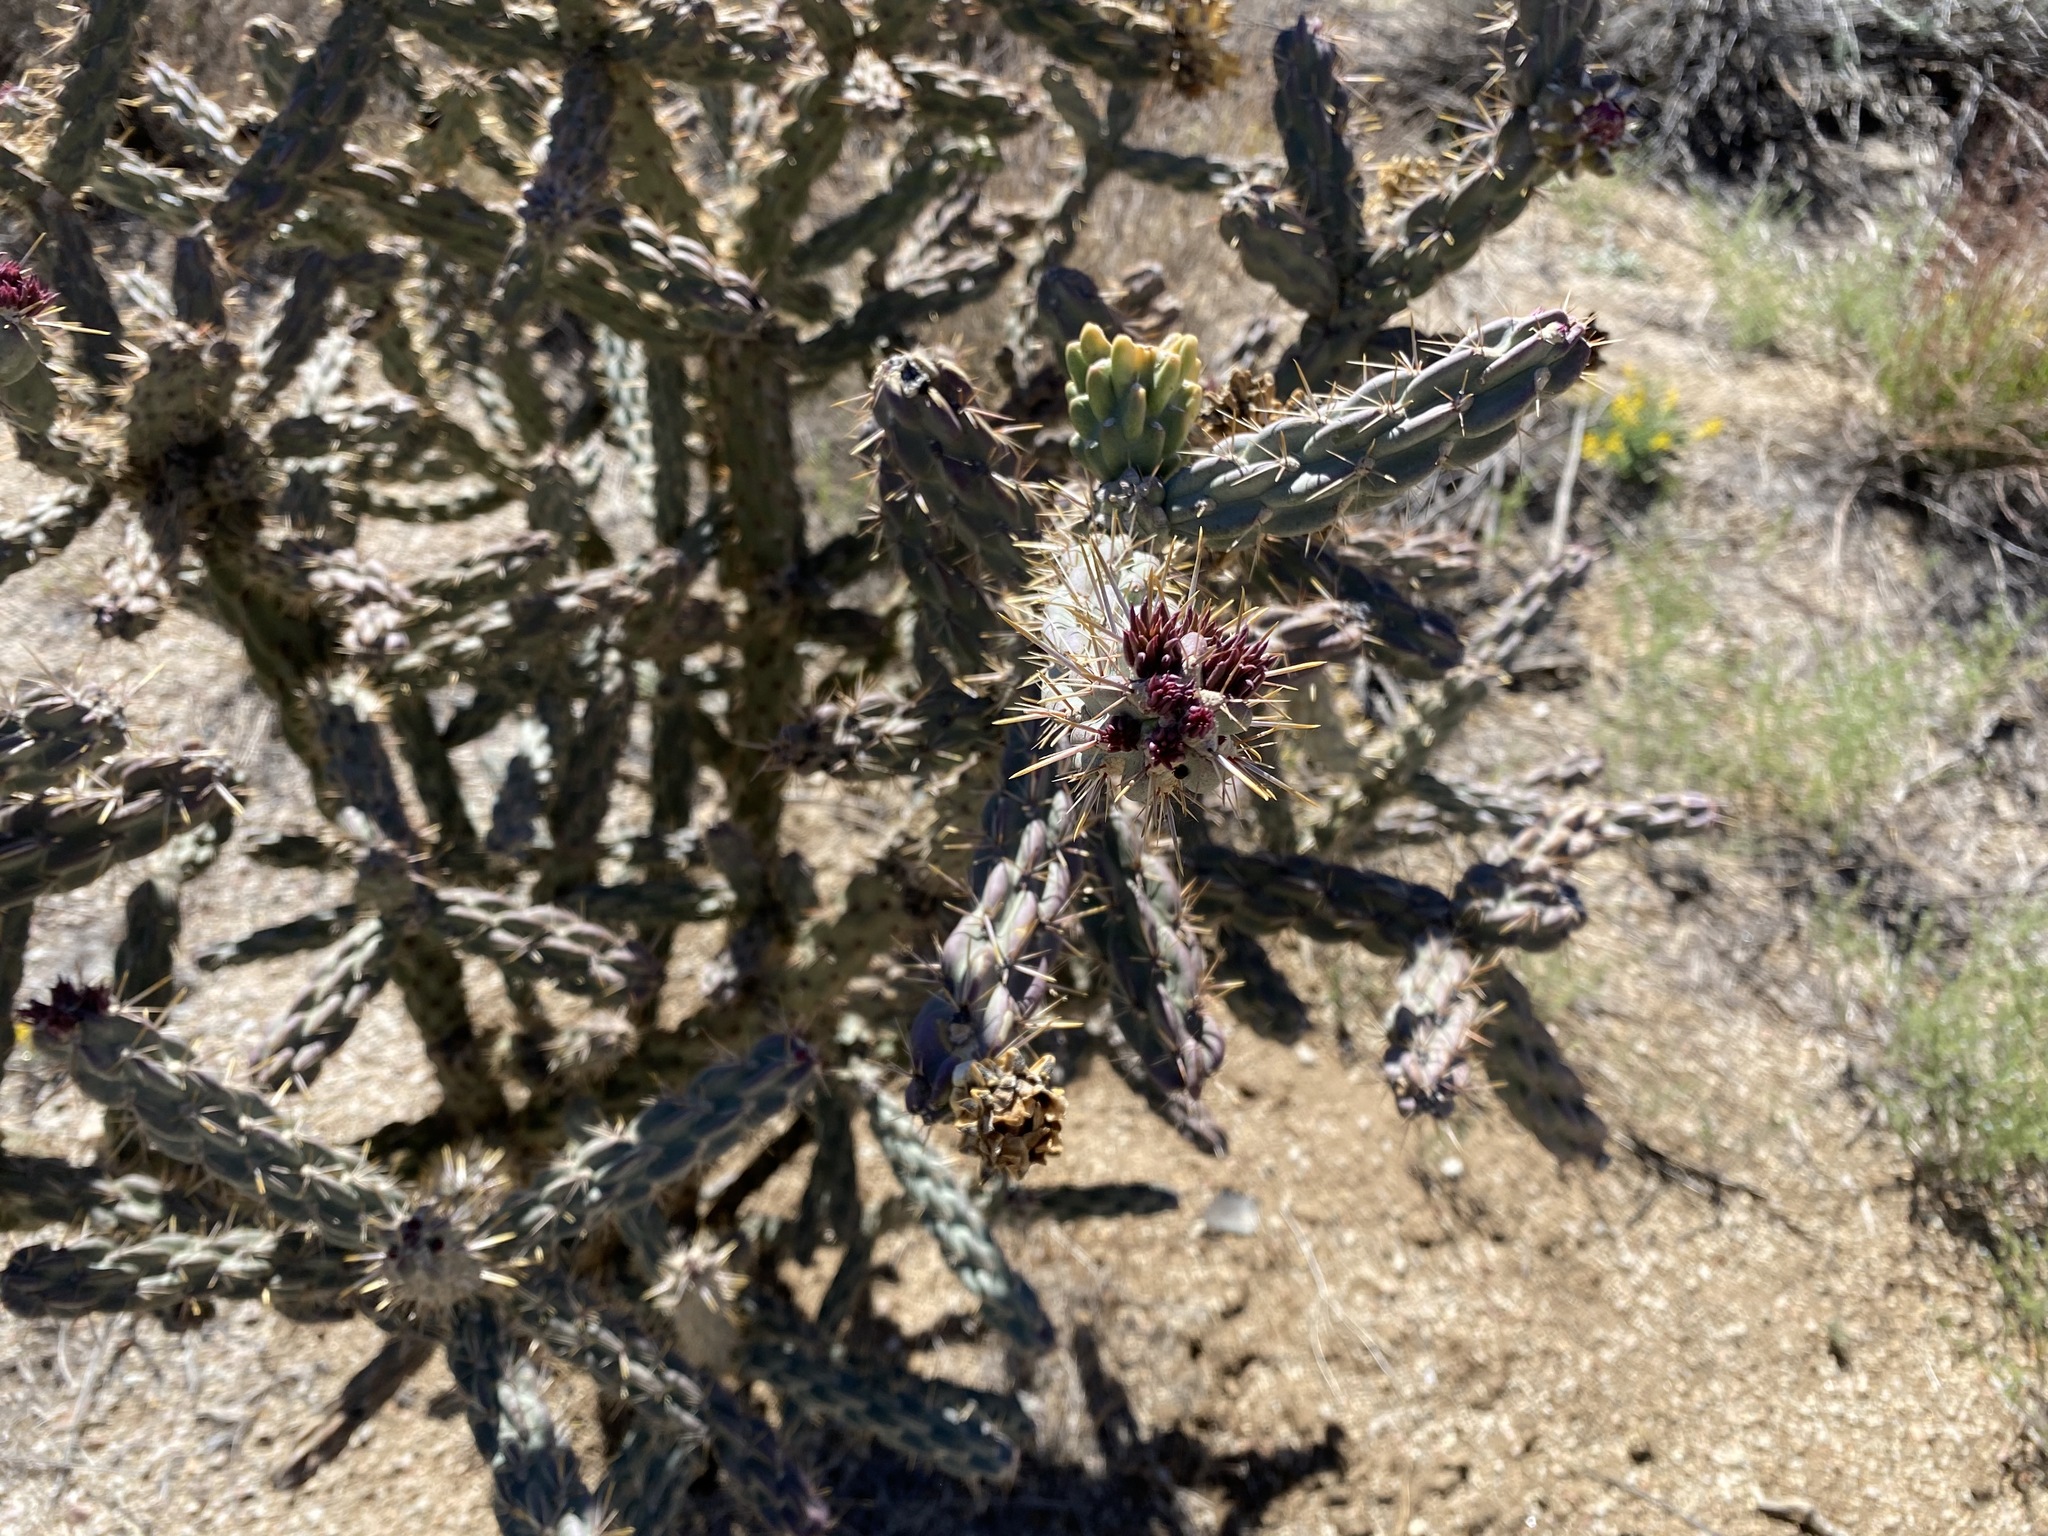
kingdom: Plantae
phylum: Tracheophyta
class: Magnoliopsida
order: Caryophyllales
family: Cactaceae
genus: Cylindropuntia
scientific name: Cylindropuntia imbricata
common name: Candelabrum cactus
